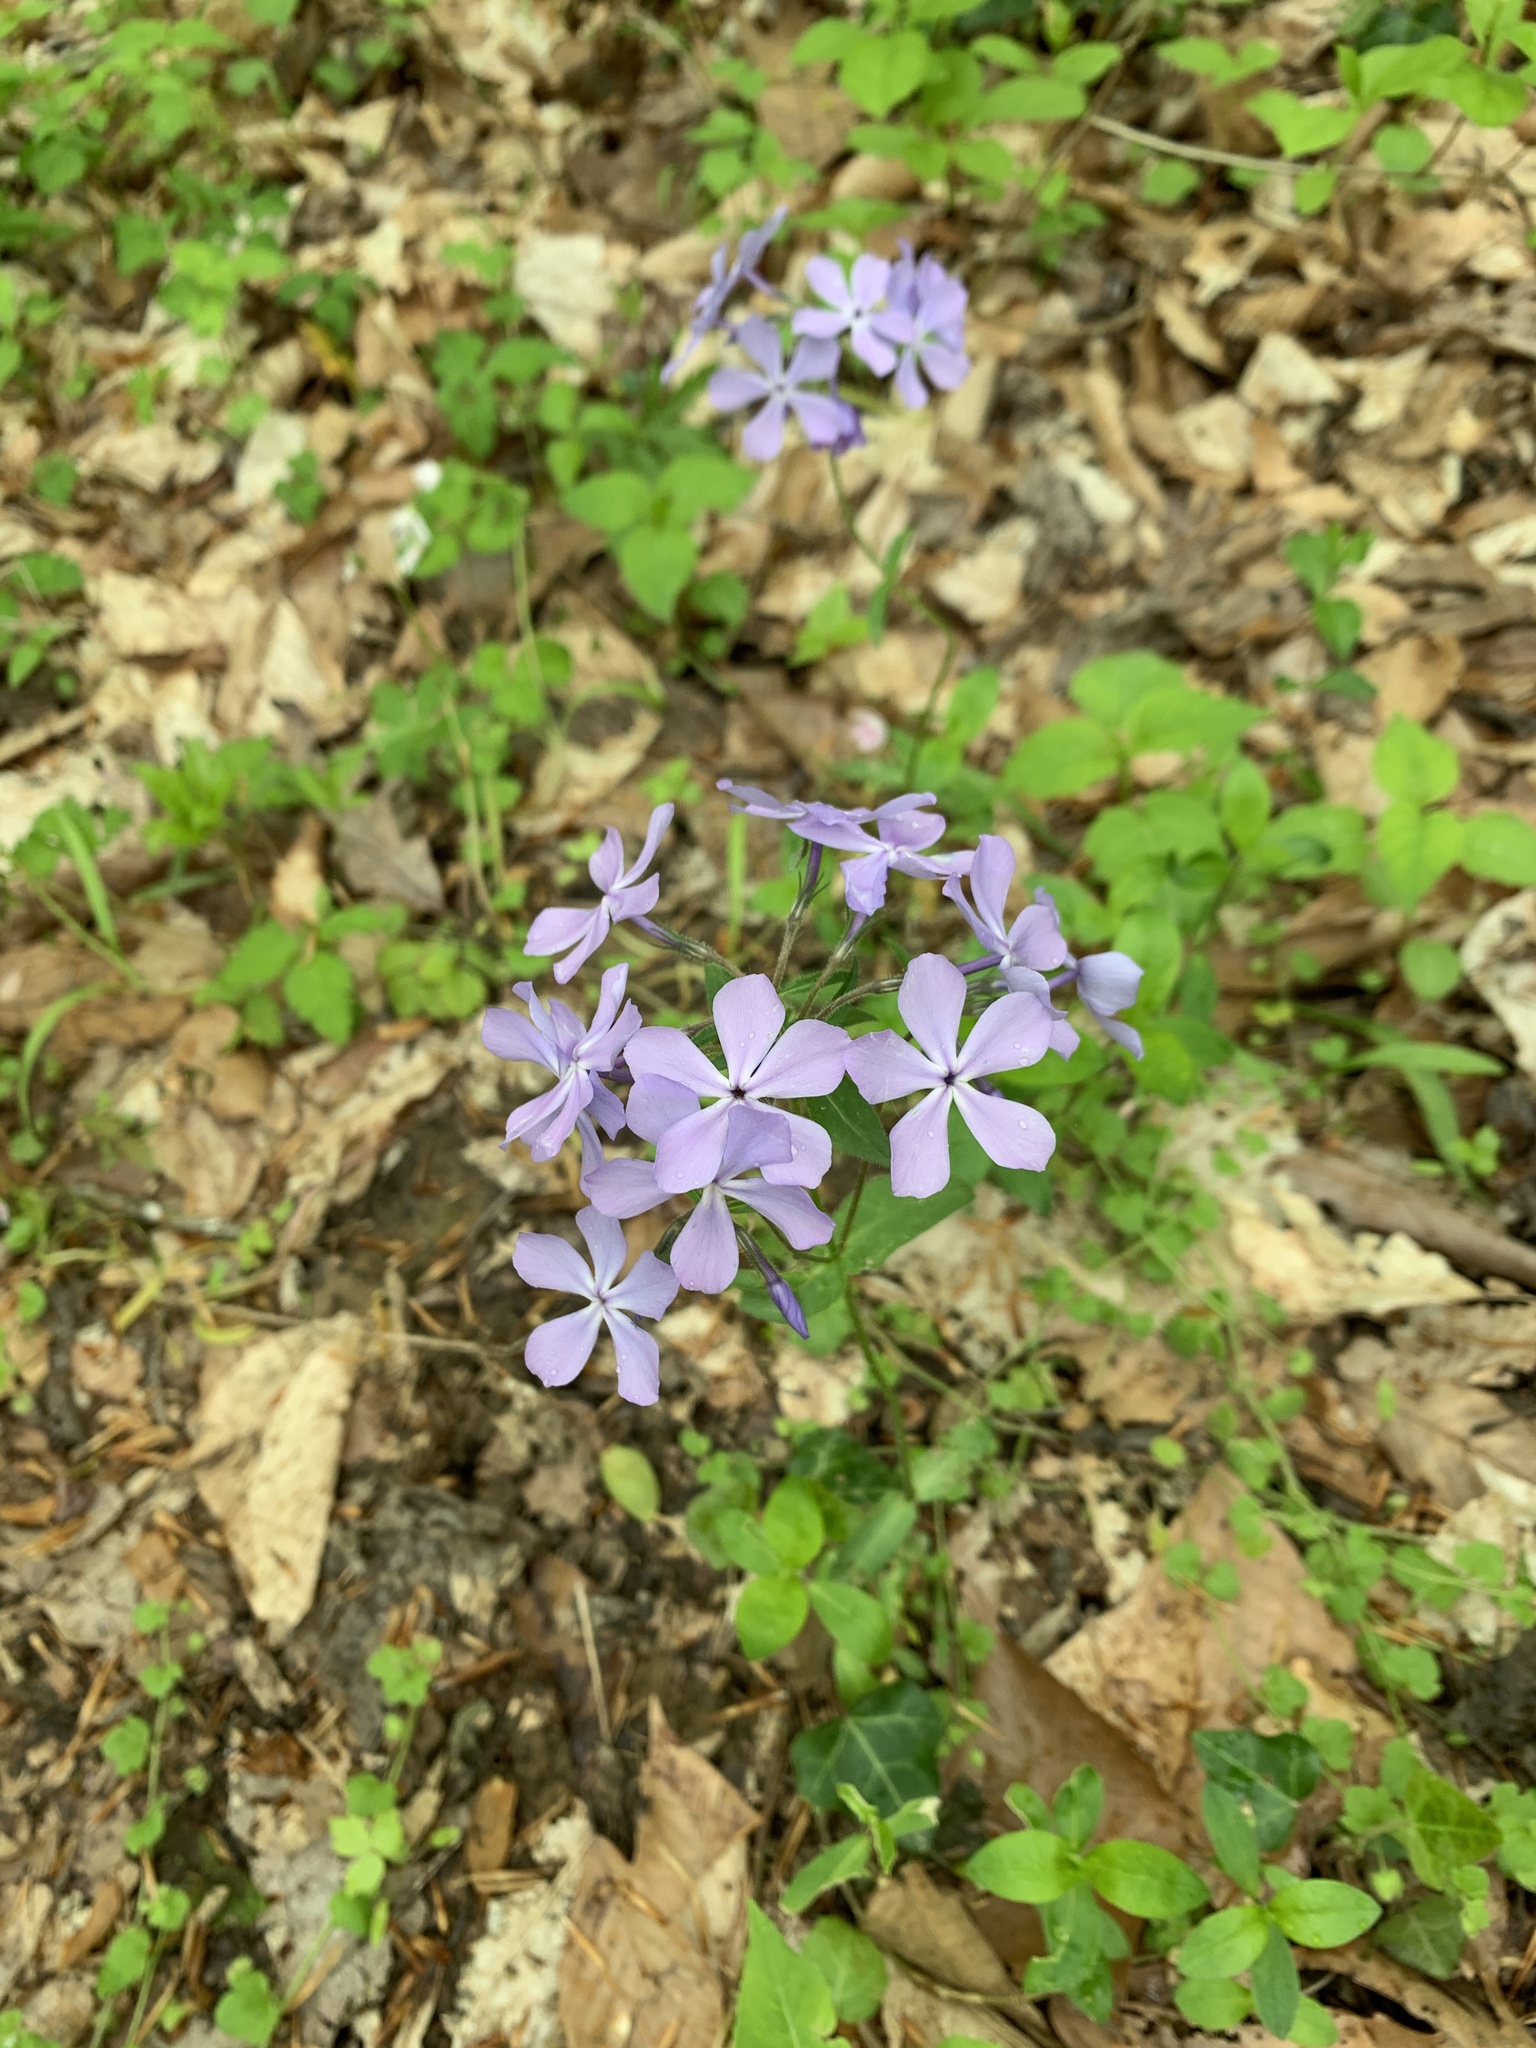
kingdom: Plantae
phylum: Tracheophyta
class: Magnoliopsida
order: Ericales
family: Polemoniaceae
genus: Phlox
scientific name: Phlox divaricata
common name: Blue phlox
